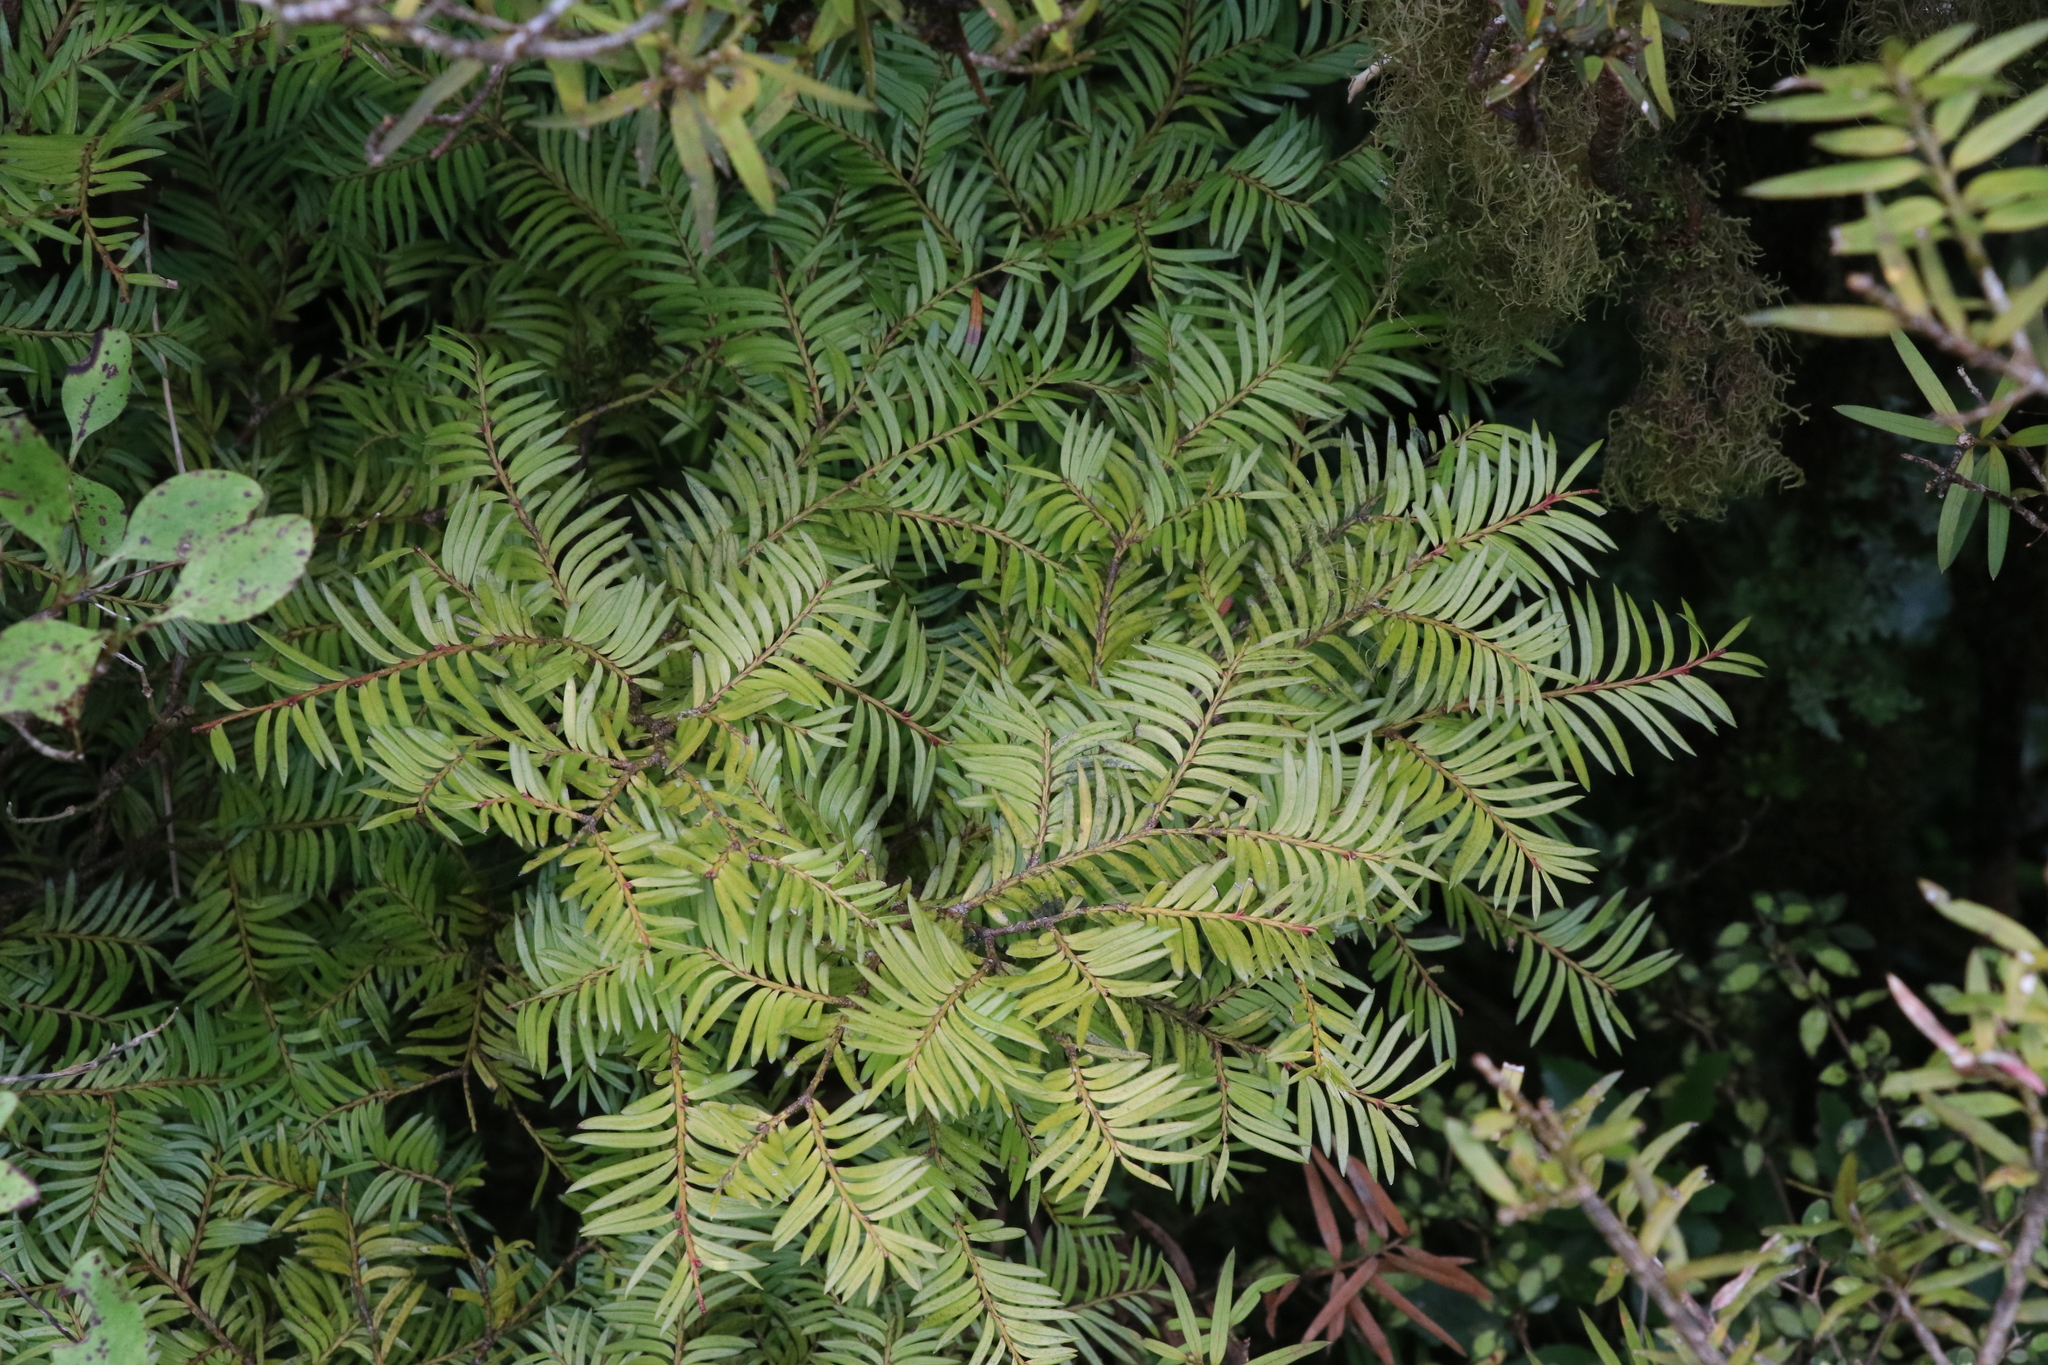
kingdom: Plantae
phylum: Tracheophyta
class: Pinopsida
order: Pinales
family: Podocarpaceae
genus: Prumnopitys
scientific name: Prumnopitys ferruginea
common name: Brown pine
